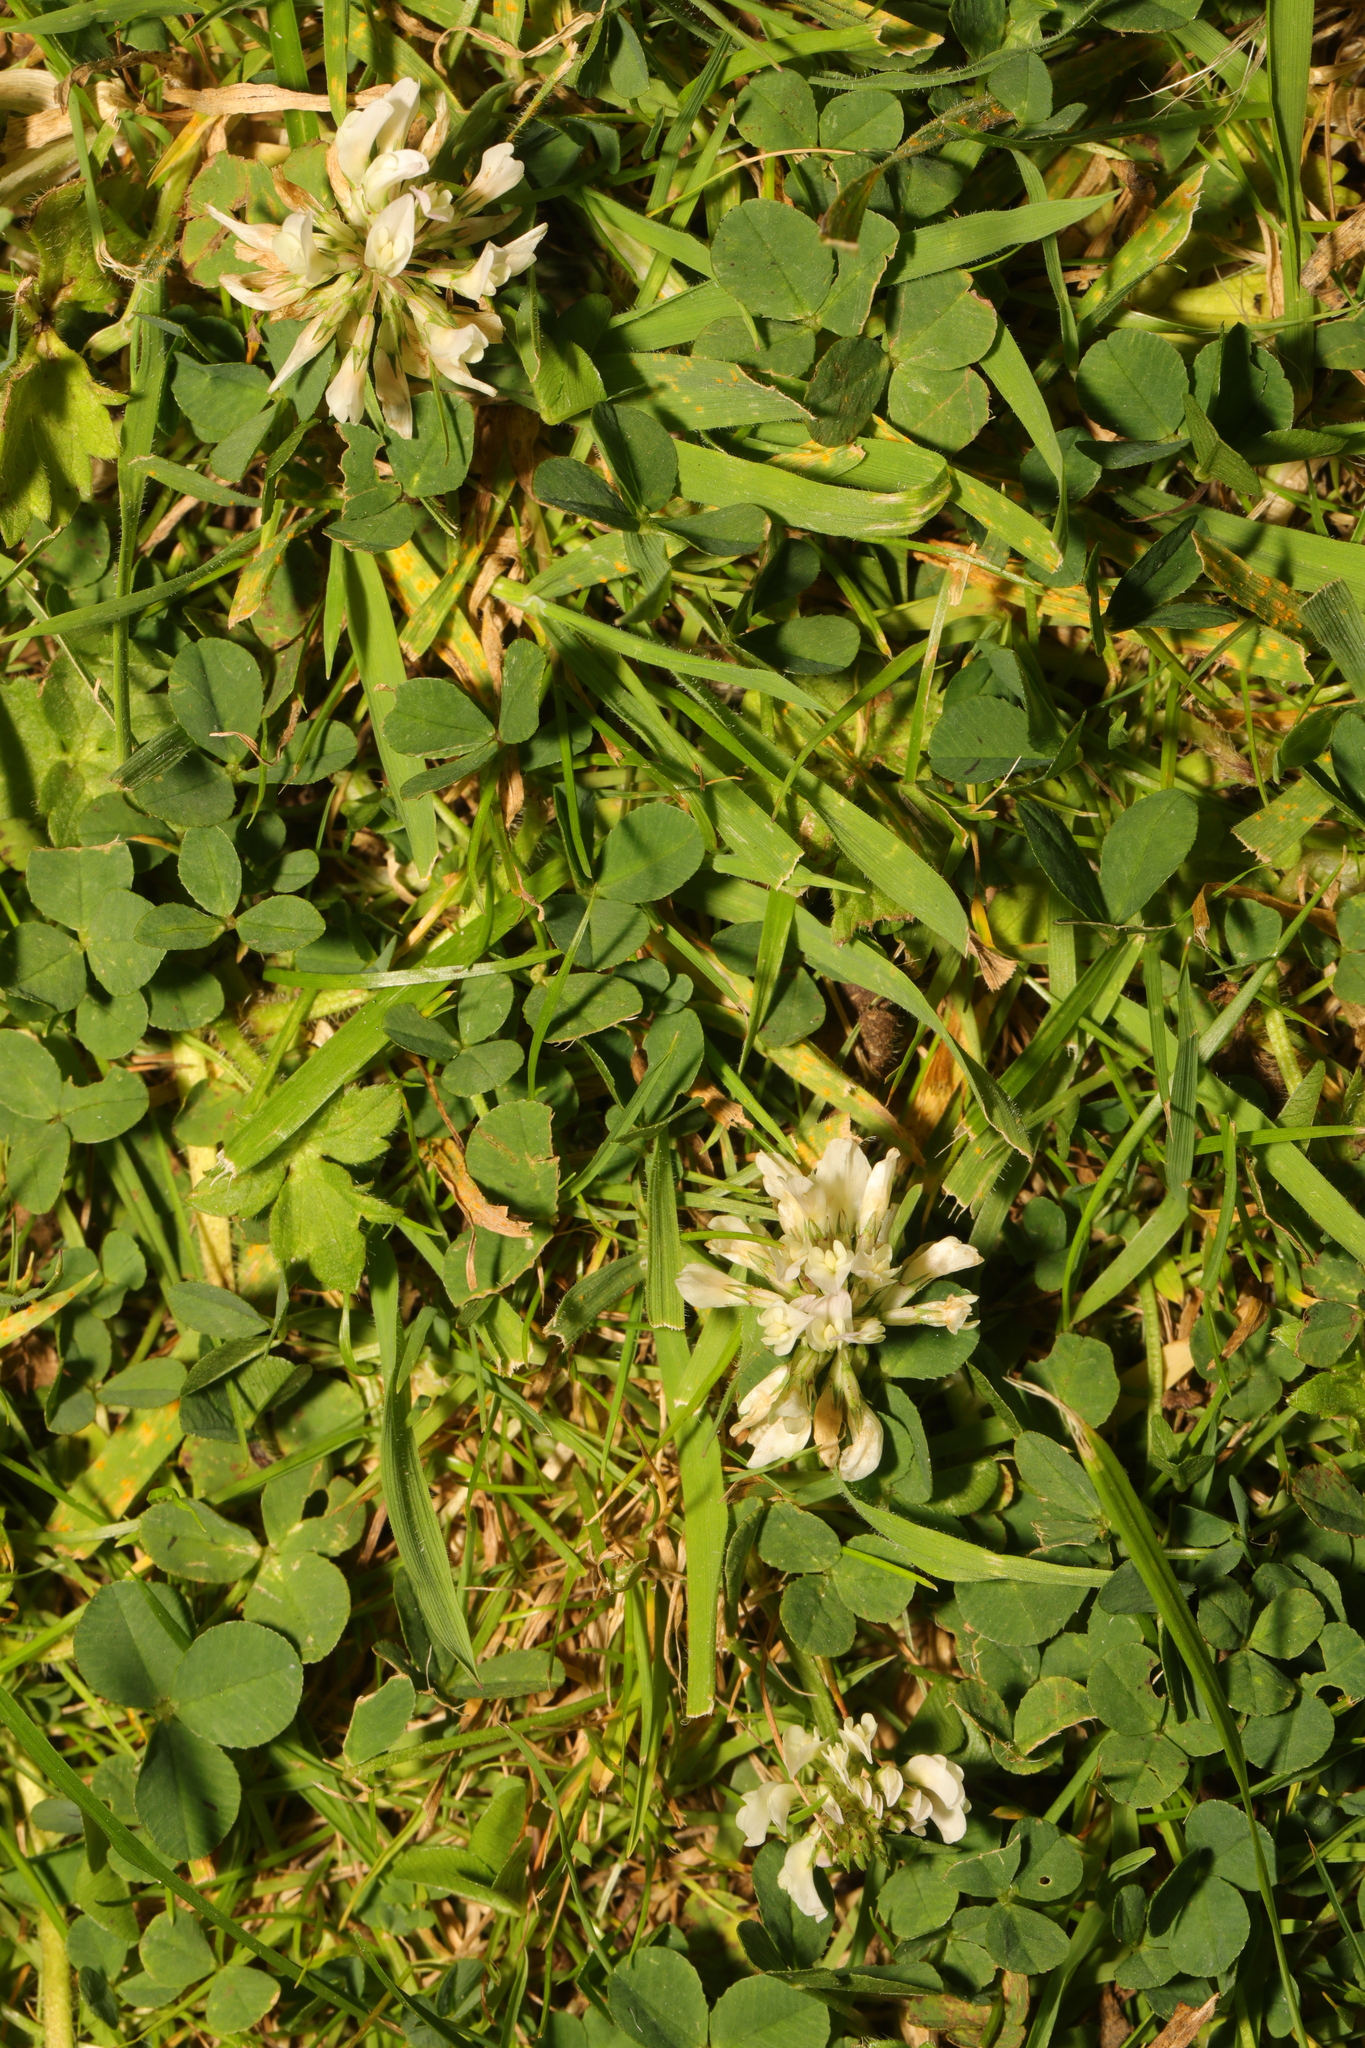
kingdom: Plantae
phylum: Tracheophyta
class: Magnoliopsida
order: Fabales
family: Fabaceae
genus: Trifolium
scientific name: Trifolium repens
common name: White clover
